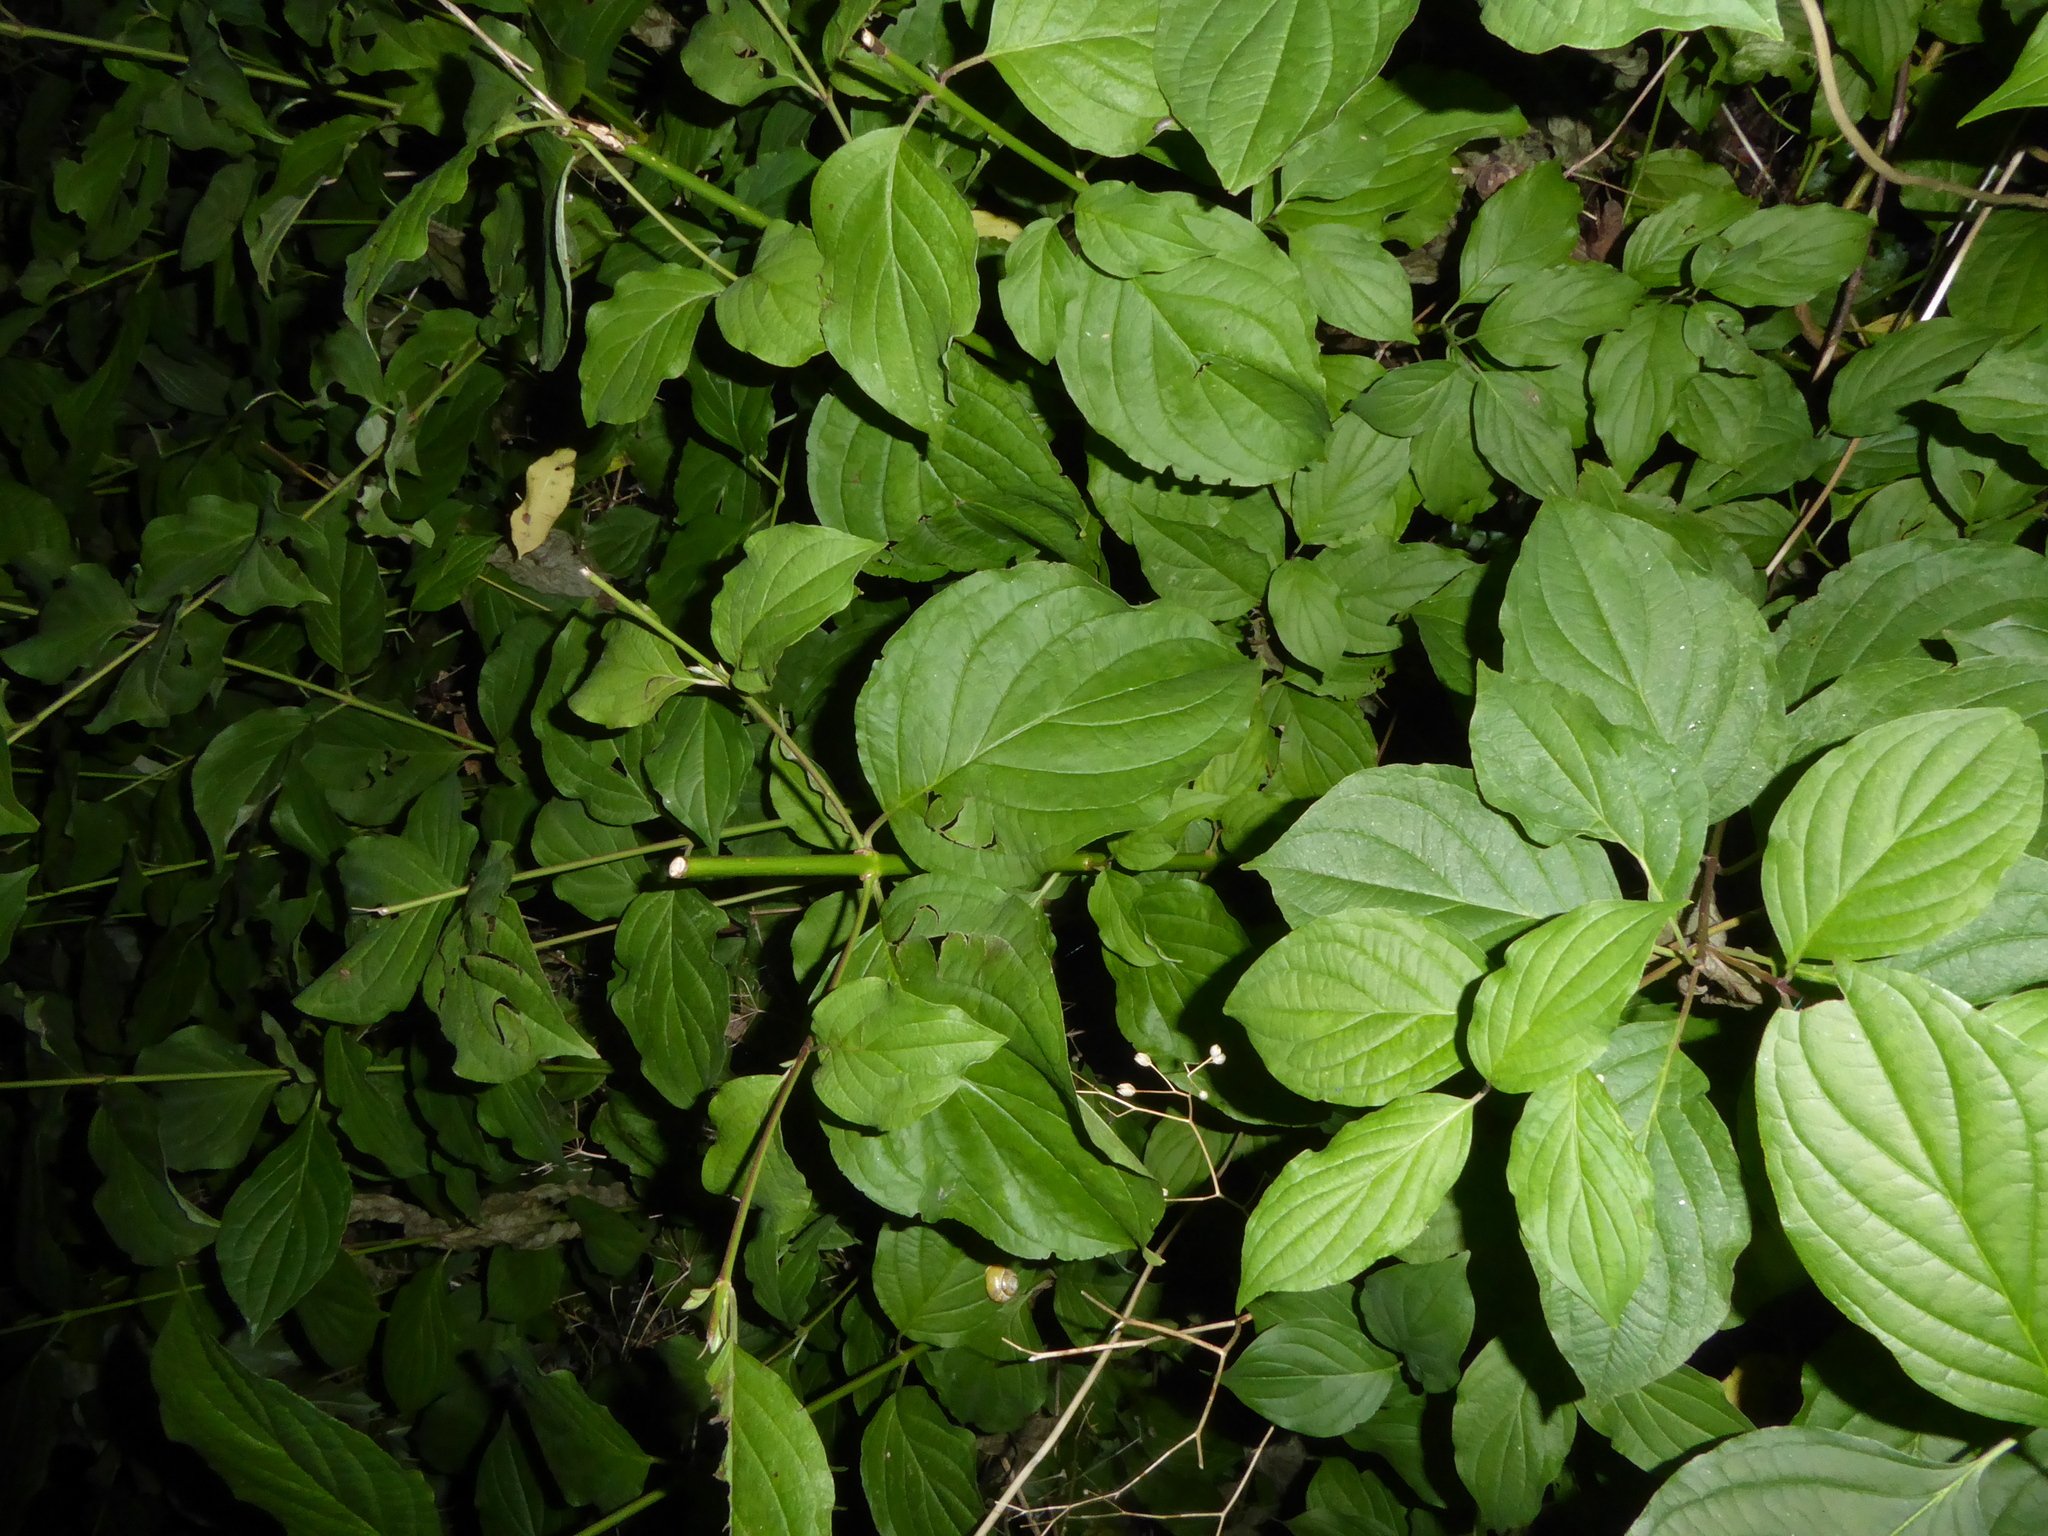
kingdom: Plantae
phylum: Tracheophyta
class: Magnoliopsida
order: Cornales
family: Cornaceae
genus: Cornus
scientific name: Cornus sanguinea
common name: Dogwood
